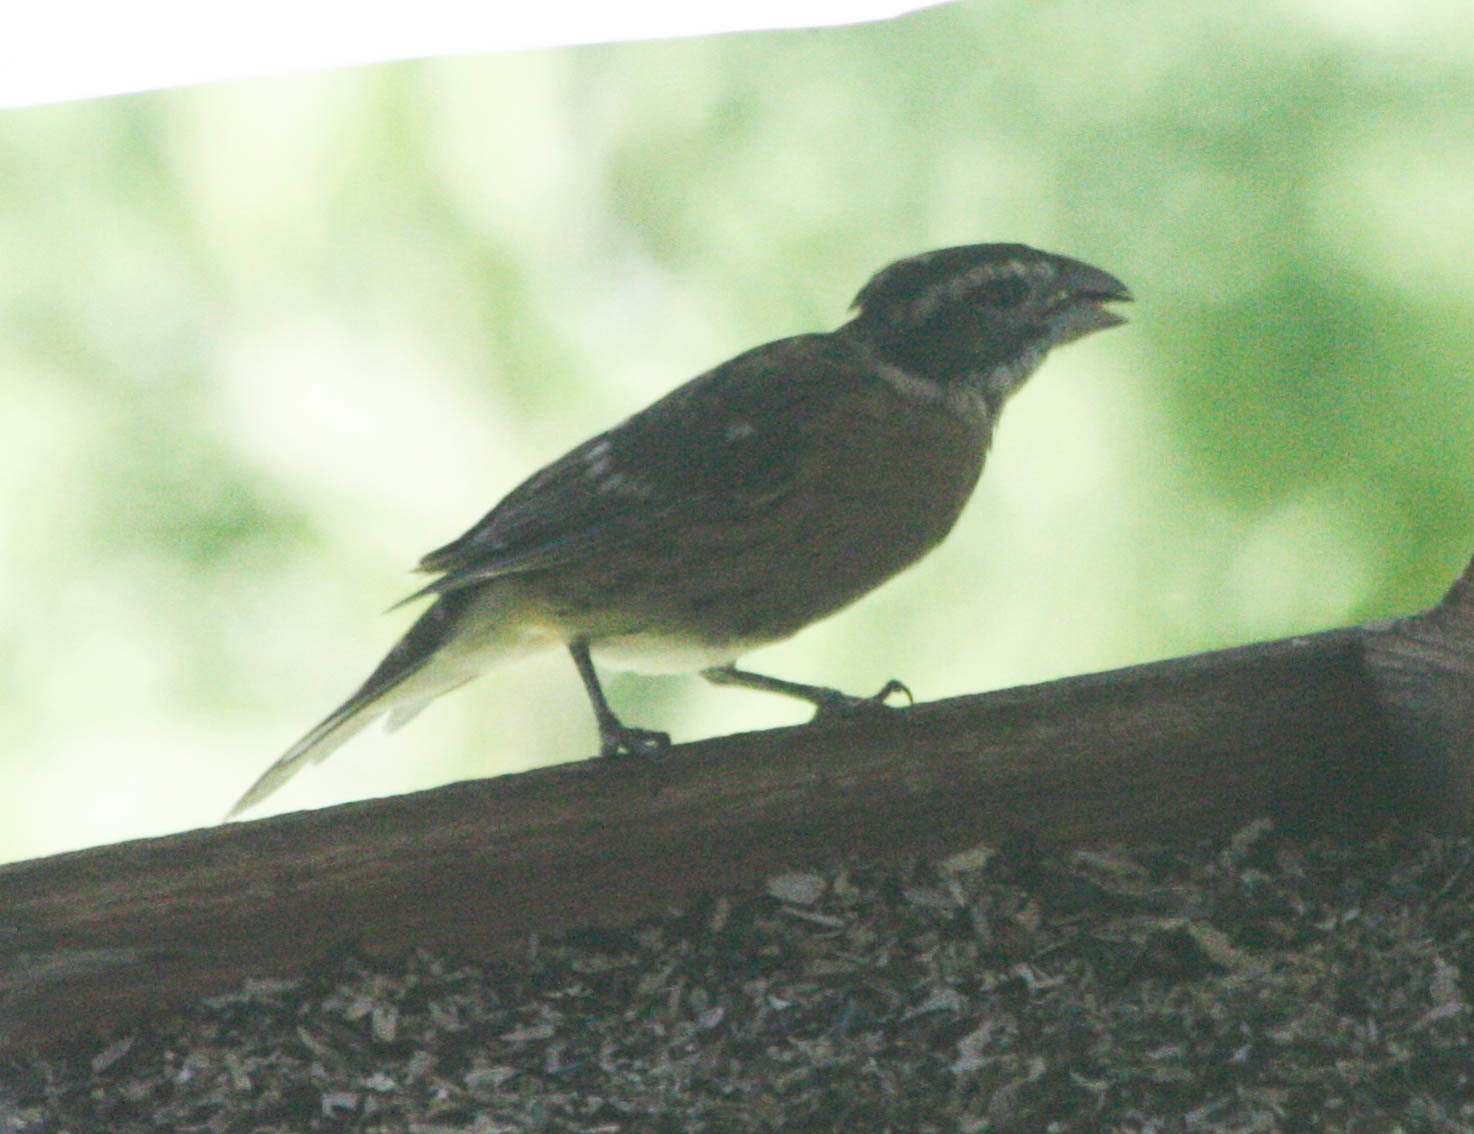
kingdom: Animalia
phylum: Chordata
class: Aves
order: Passeriformes
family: Cardinalidae
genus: Pheucticus
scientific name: Pheucticus melanocephalus
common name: Black-headed grosbeak
